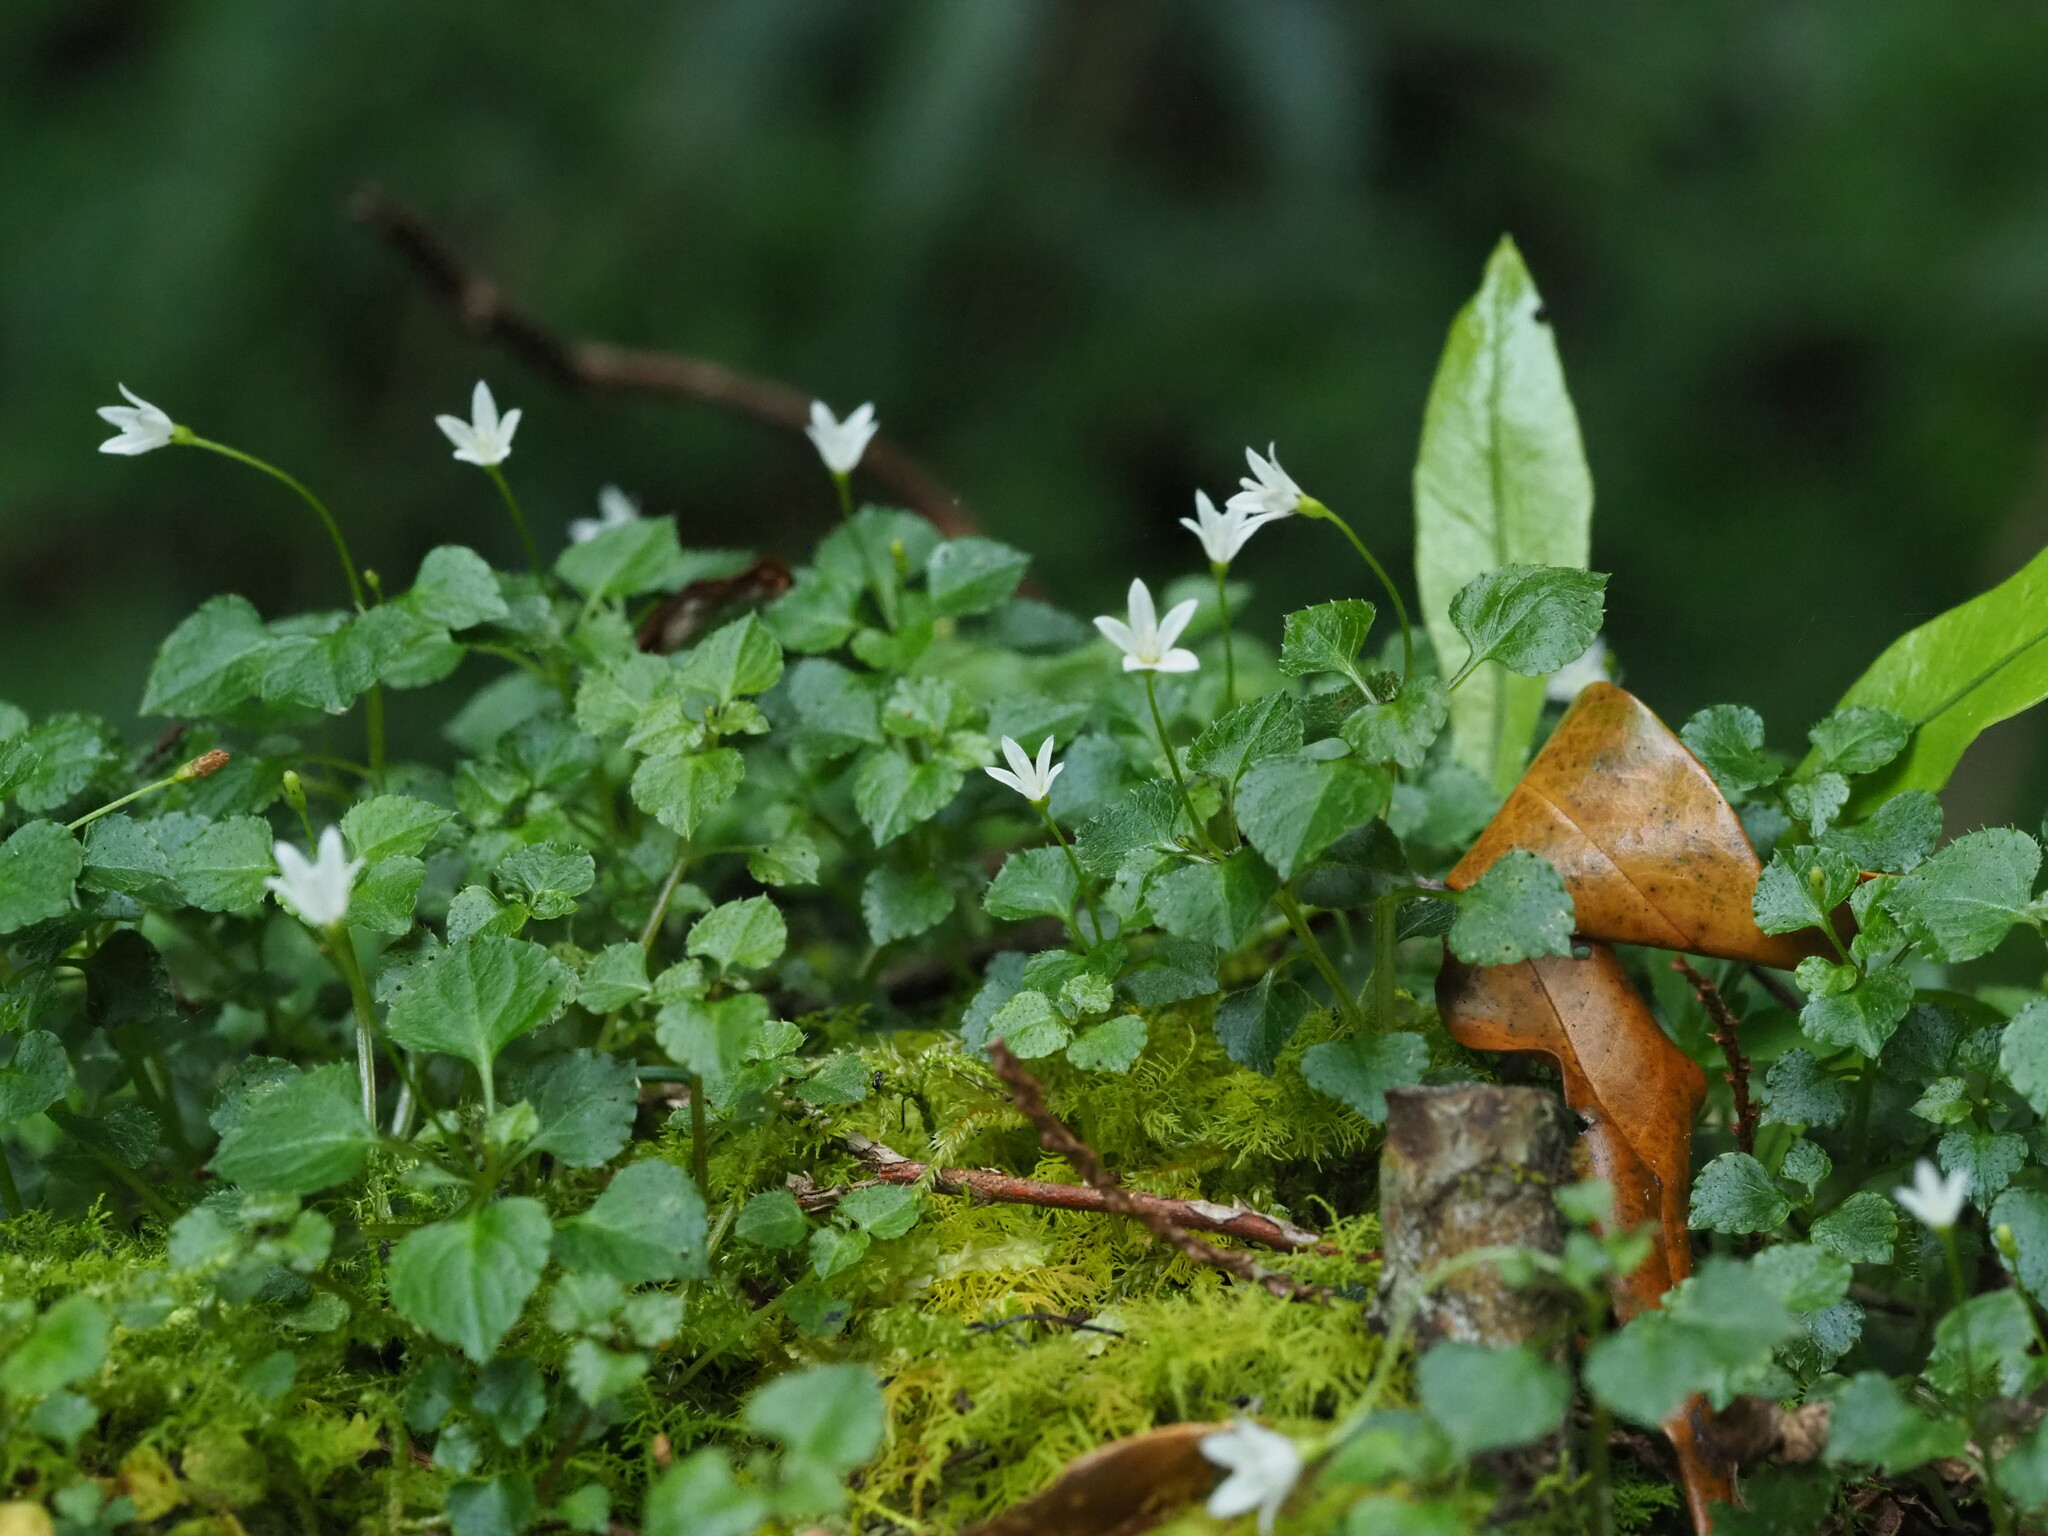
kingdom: Plantae
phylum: Tracheophyta
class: Magnoliopsida
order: Asterales
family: Campanulaceae
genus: Peracarpa
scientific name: Peracarpa carnosa
